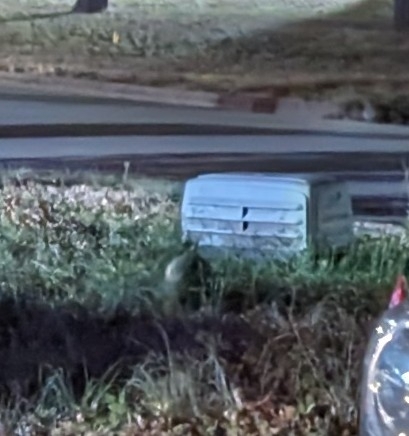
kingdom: Animalia
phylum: Chordata
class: Mammalia
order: Cingulata
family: Dasypodidae
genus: Dasypus
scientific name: Dasypus novemcinctus
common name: Nine-banded armadillo
